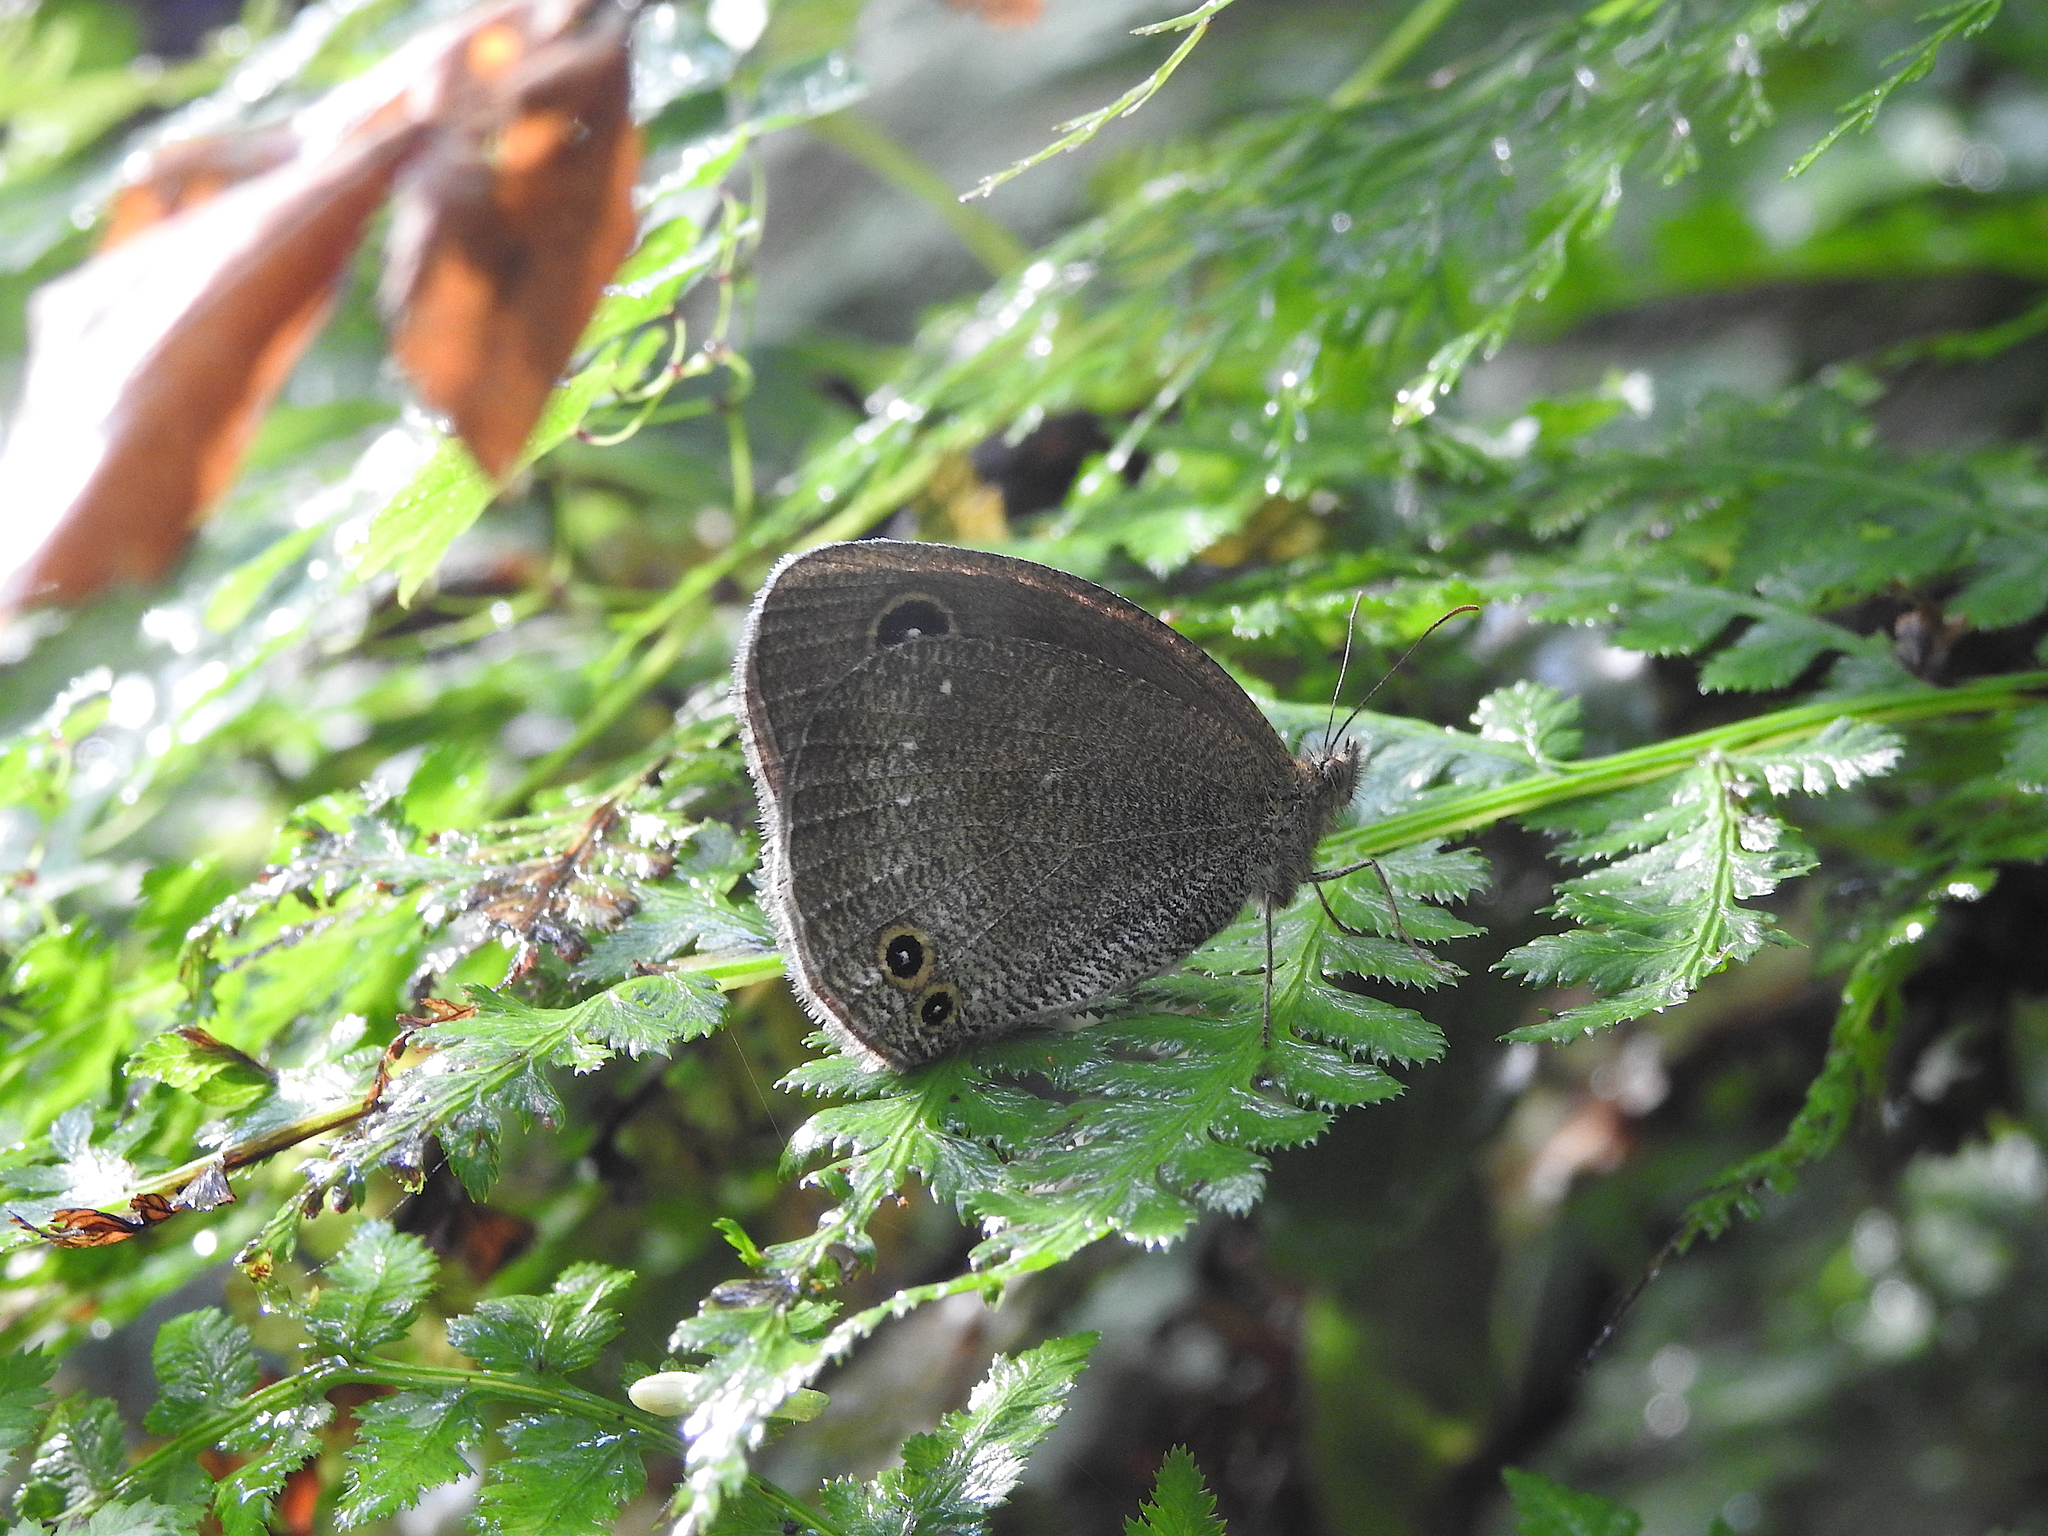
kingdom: Animalia
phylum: Arthropoda
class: Insecta
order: Lepidoptera
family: Nymphalidae
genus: Callerebia
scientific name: Callerebia scanda
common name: Pallid argus
